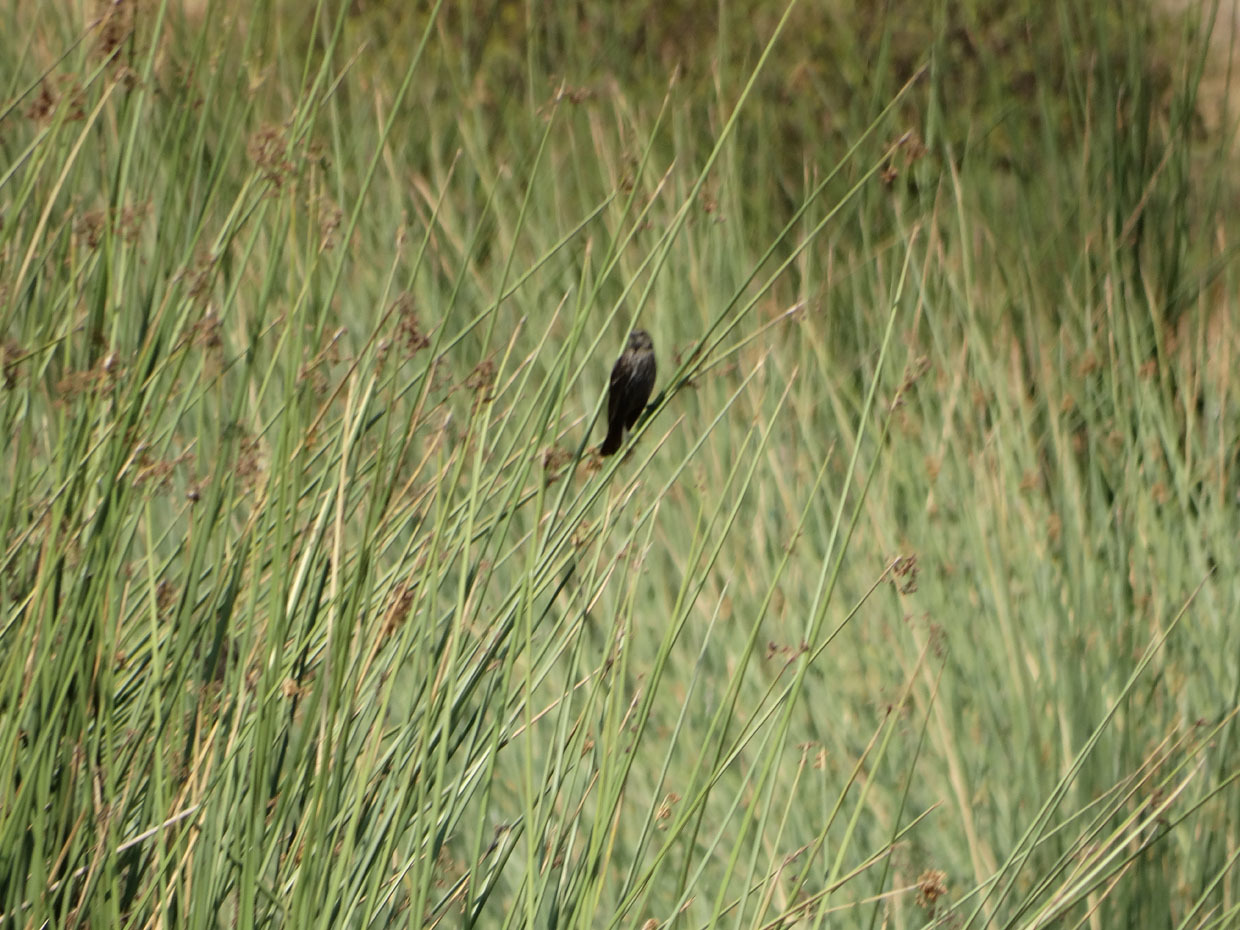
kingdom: Animalia
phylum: Chordata
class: Aves
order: Passeriformes
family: Icteridae
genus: Agelaius
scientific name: Agelaius phoeniceus
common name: Red-winged blackbird
